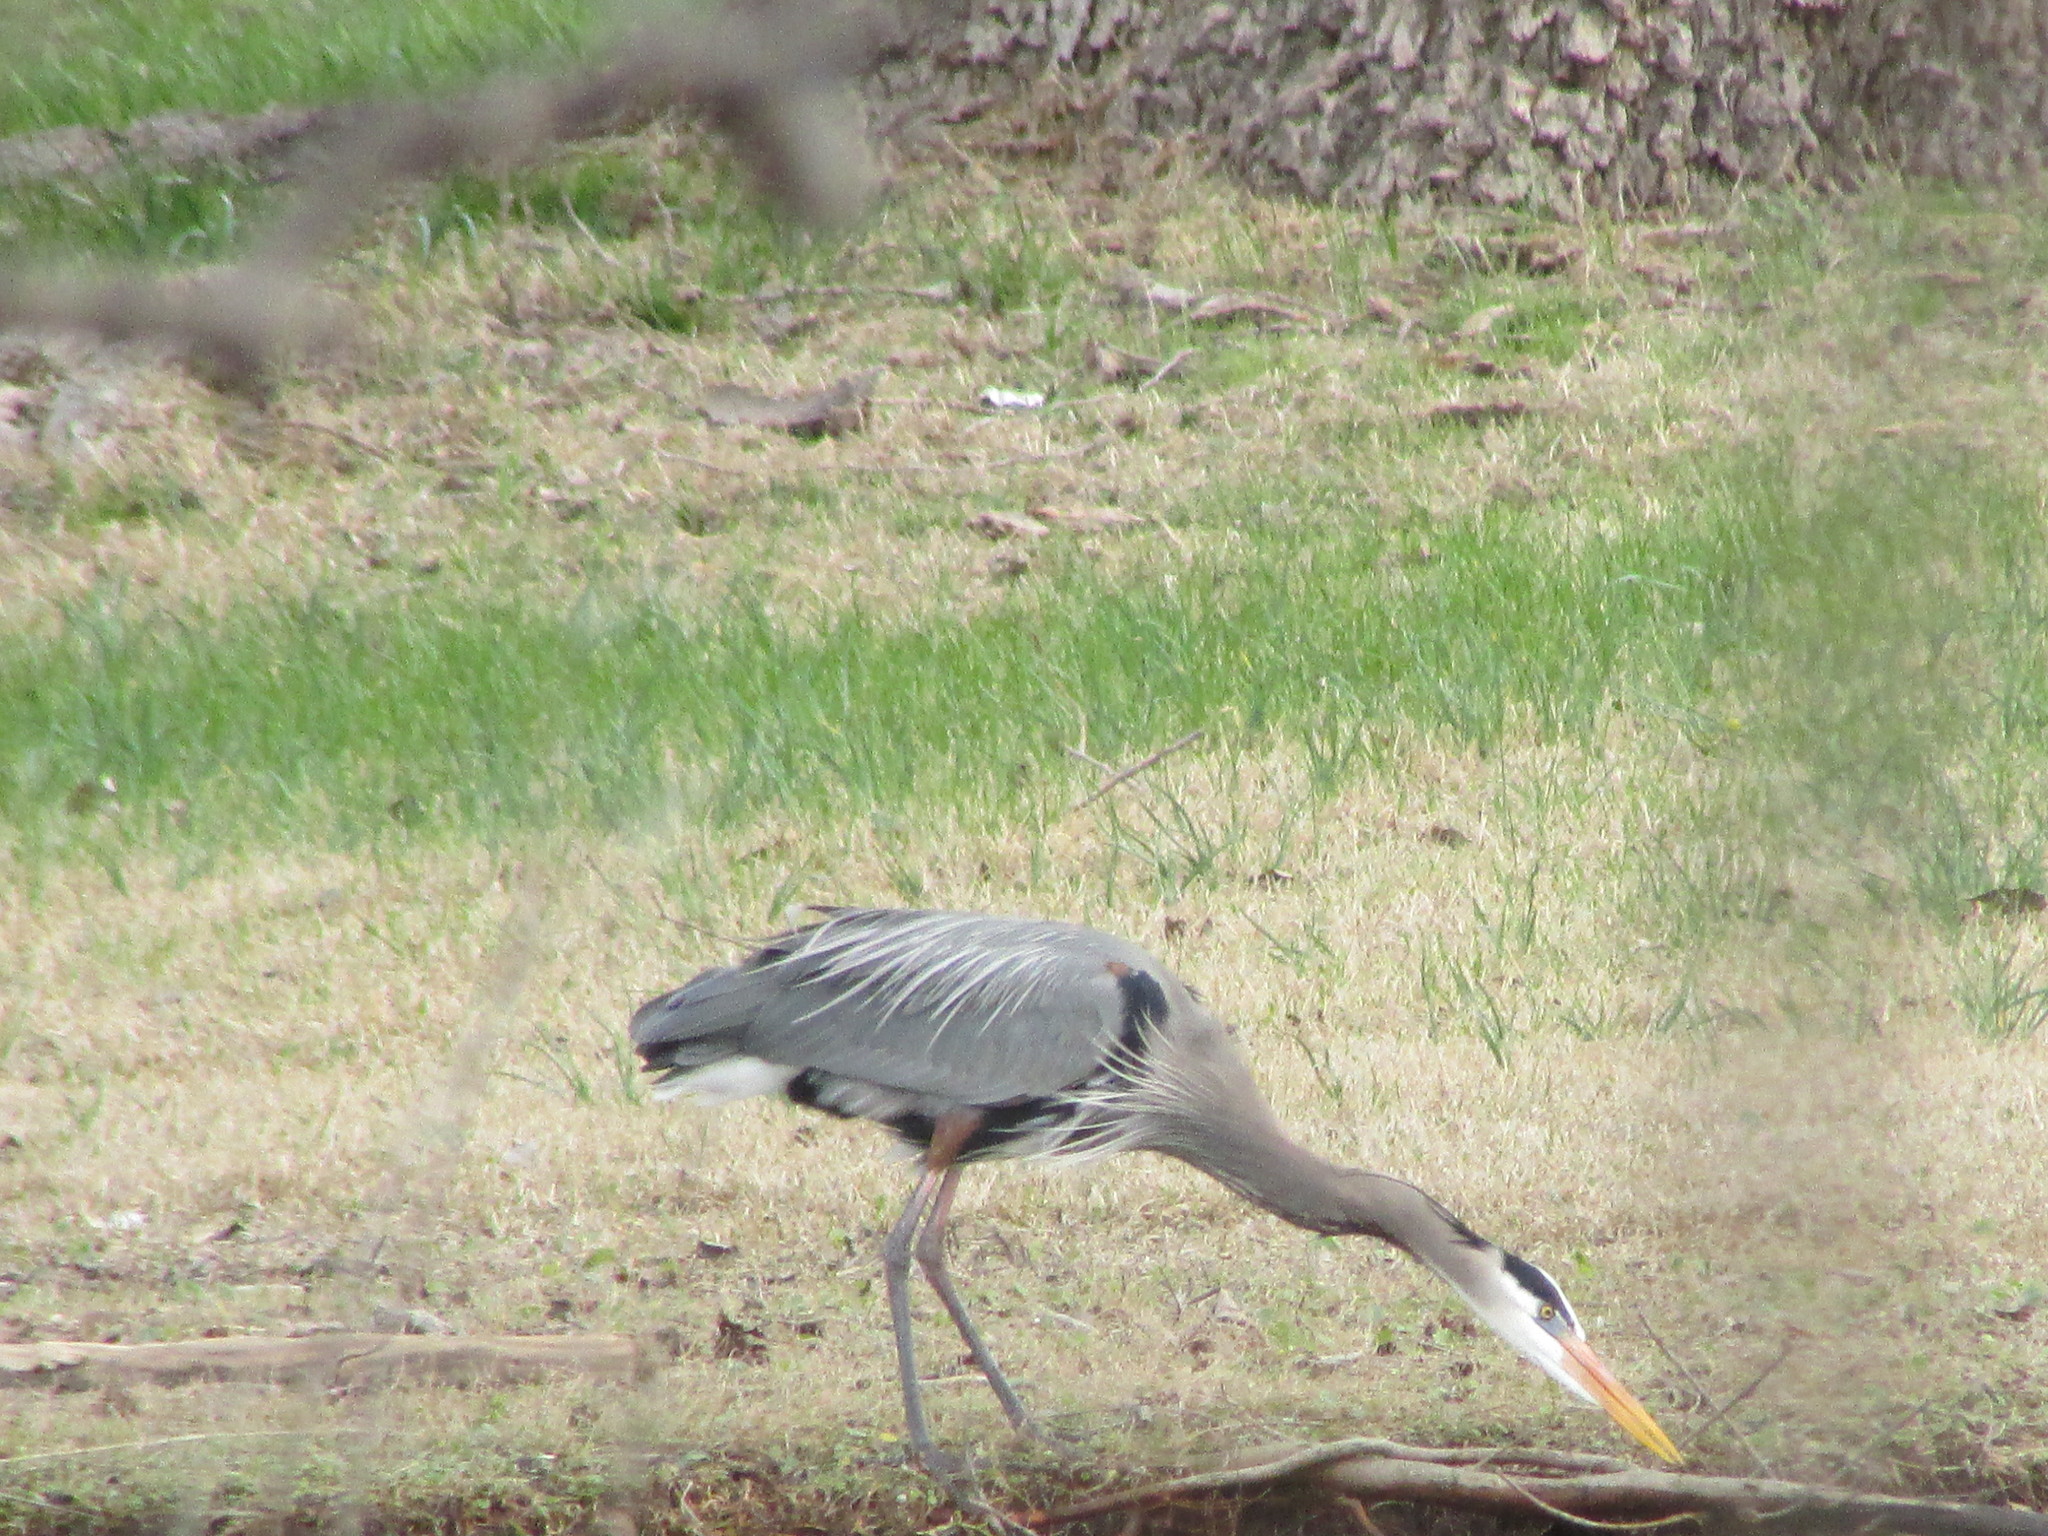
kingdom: Animalia
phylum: Chordata
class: Aves
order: Pelecaniformes
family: Ardeidae
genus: Ardea
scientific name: Ardea herodias
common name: Great blue heron
